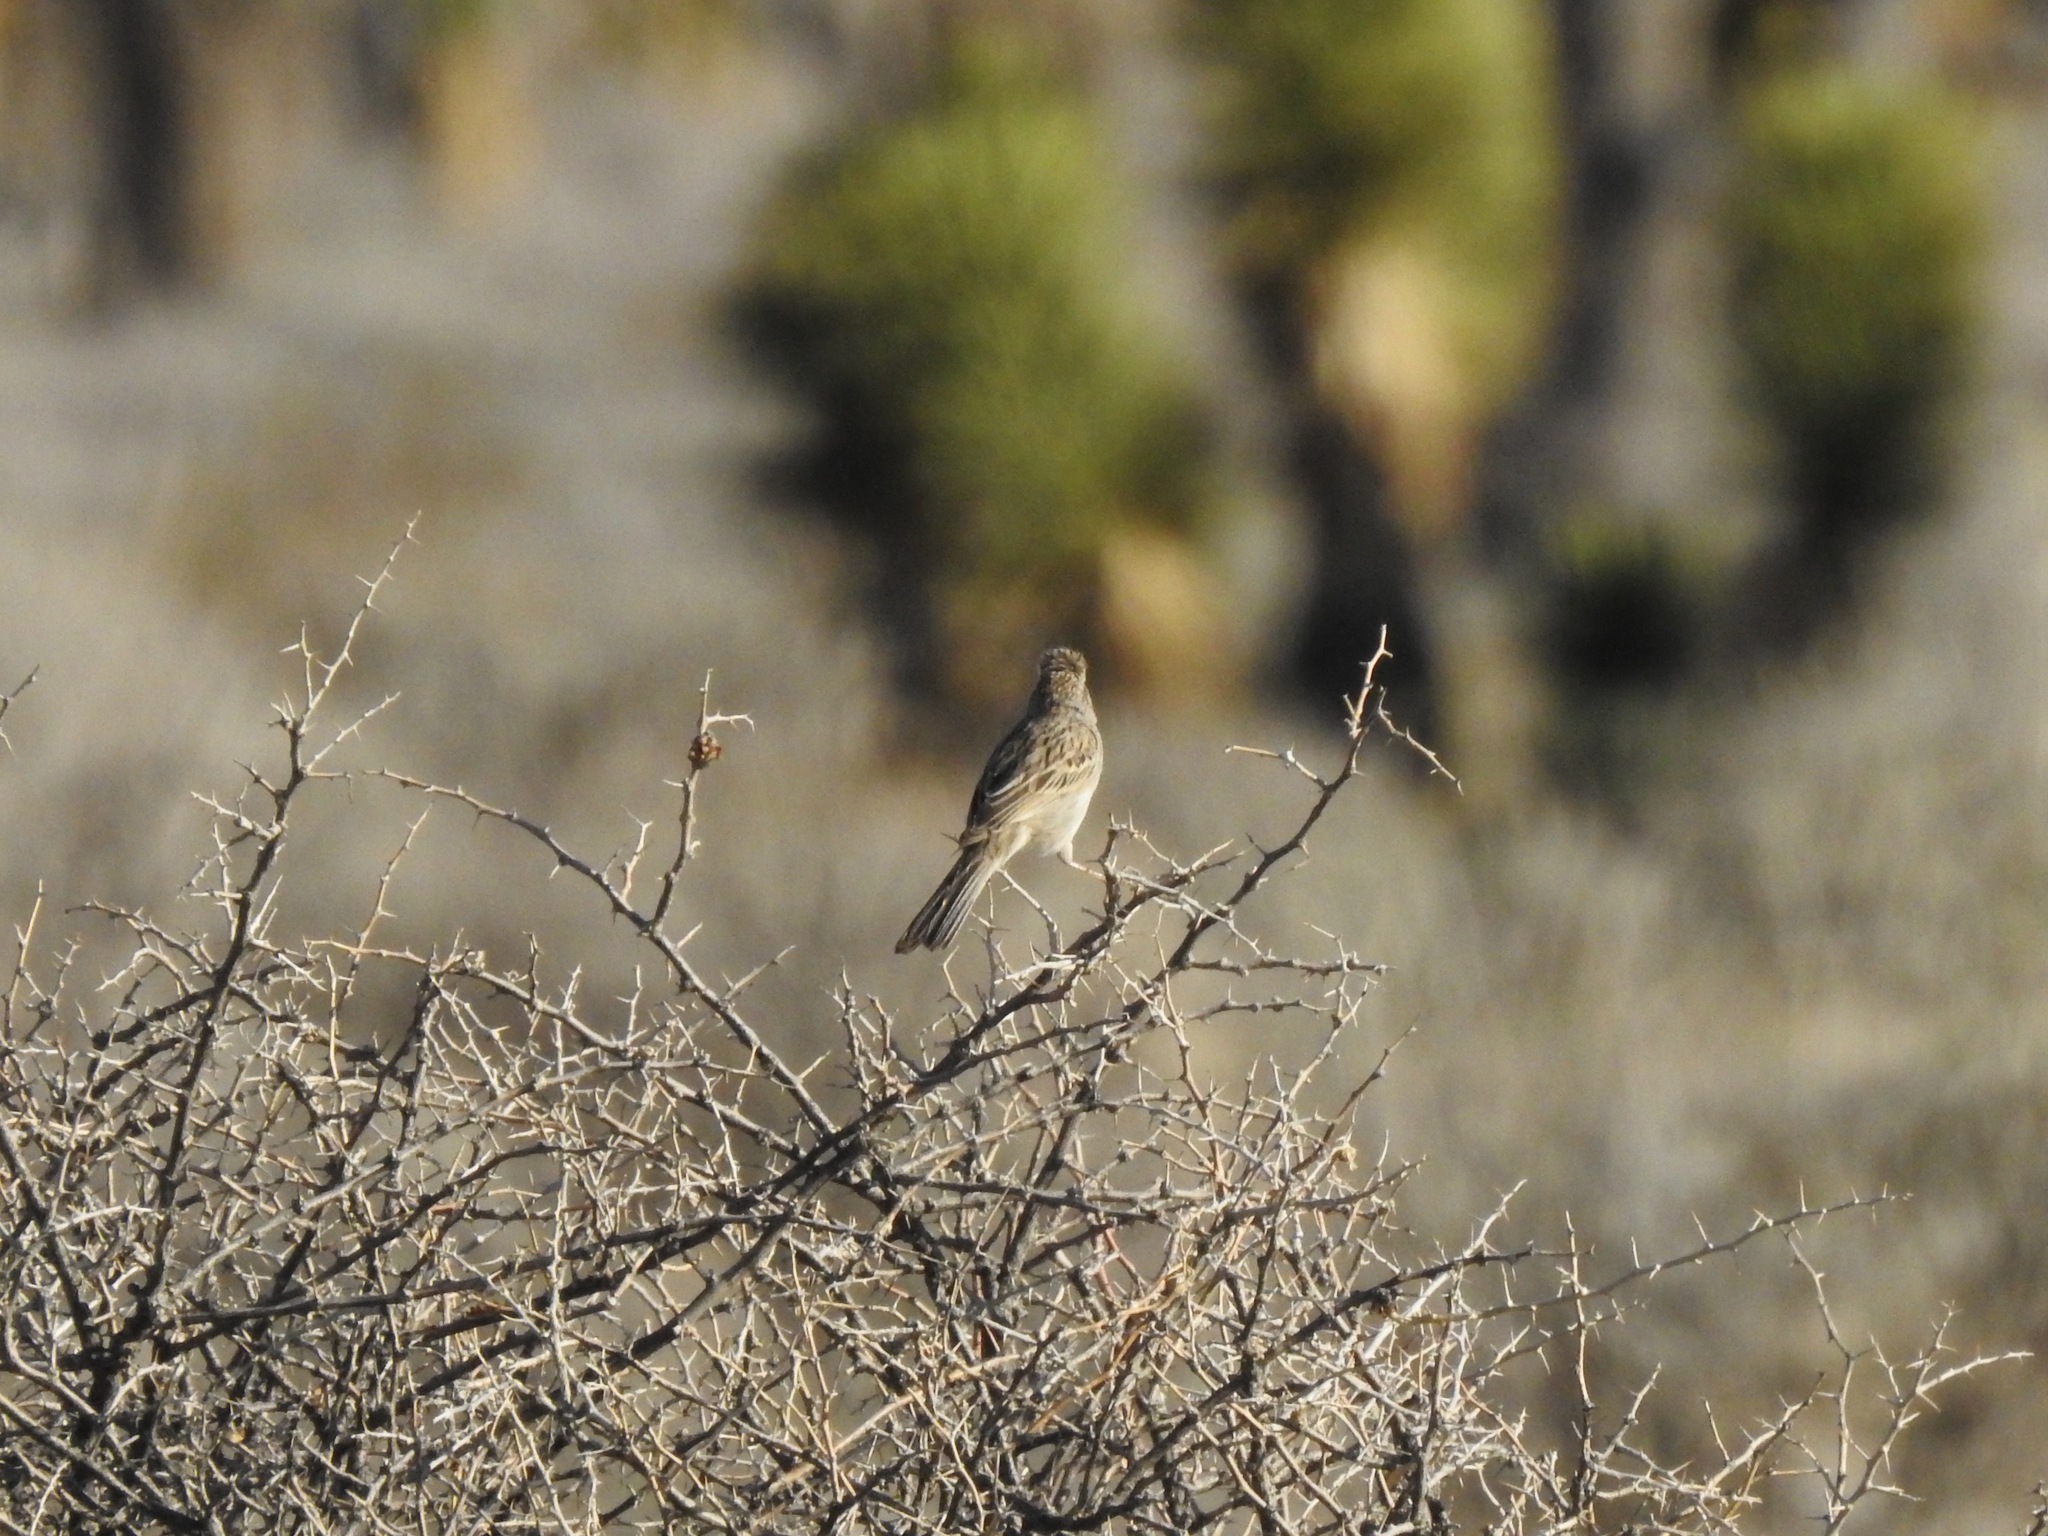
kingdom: Animalia
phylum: Chordata
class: Aves
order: Passeriformes
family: Passerellidae
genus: Spizella
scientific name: Spizella breweri
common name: Brewer's sparrow
